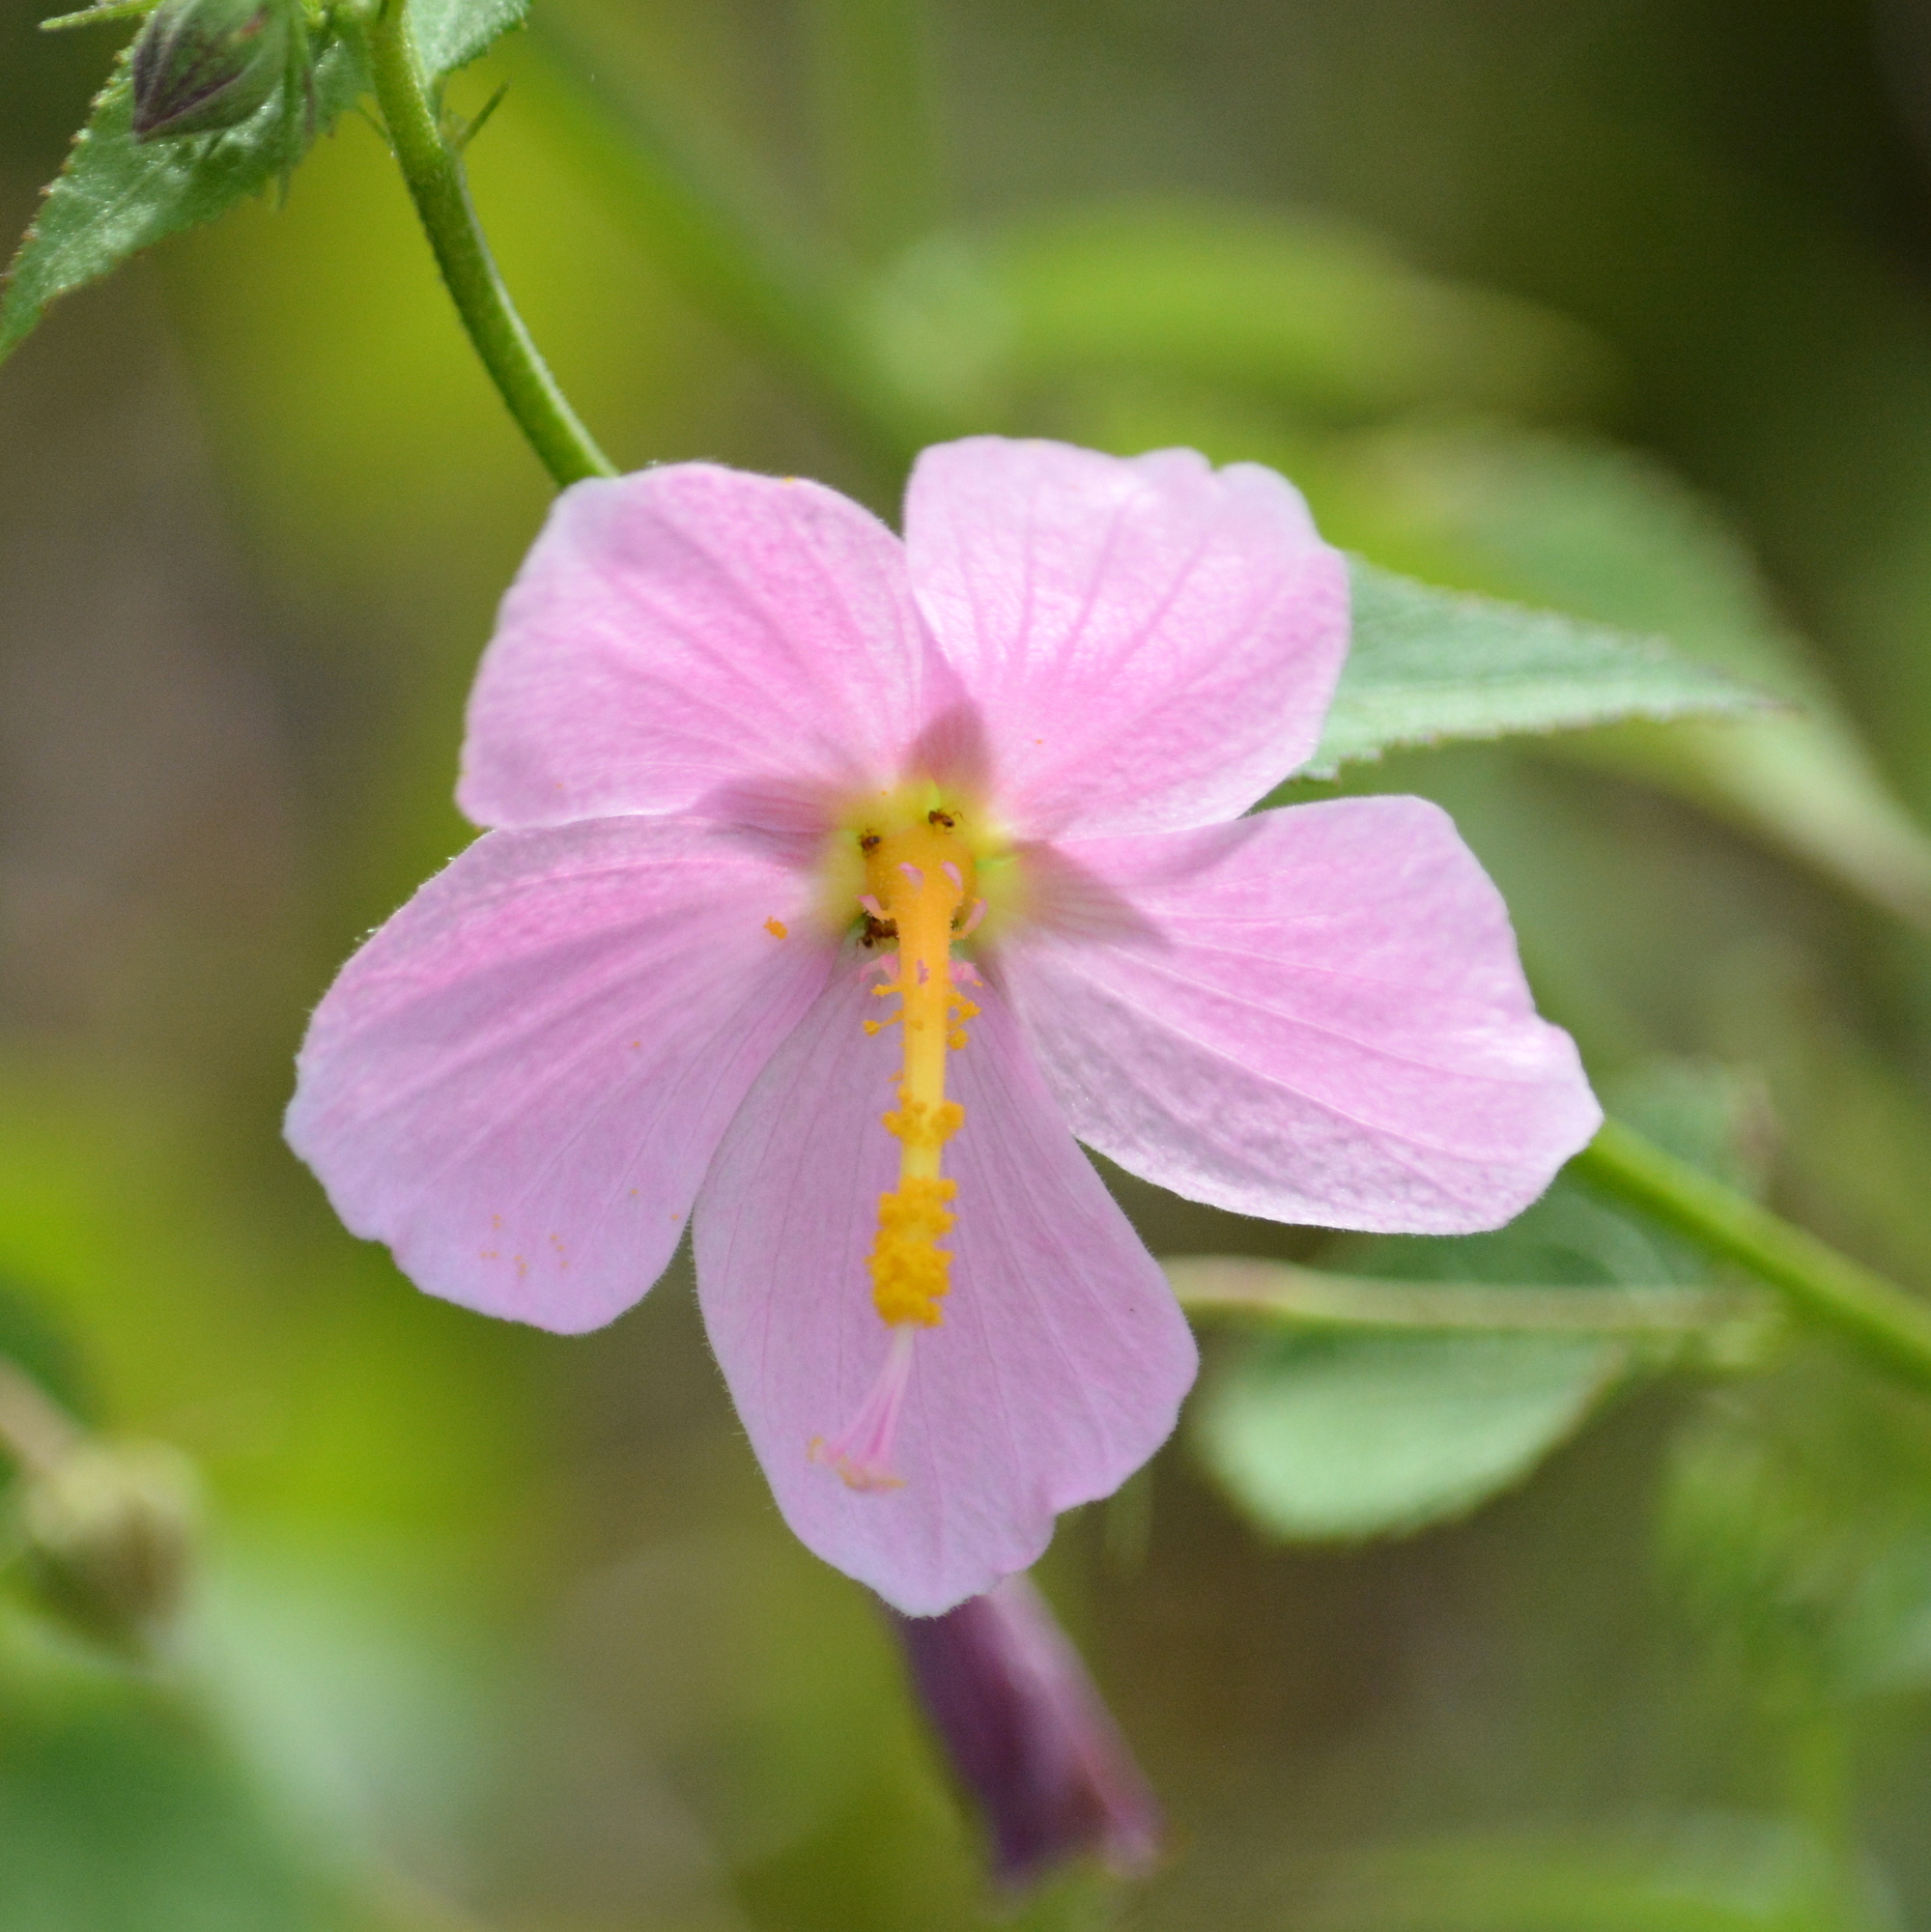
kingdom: Plantae
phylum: Tracheophyta
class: Magnoliopsida
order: Malvales
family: Malvaceae
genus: Kosteletzkya
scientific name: Kosteletzkya pentacarpos
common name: Virginia saltmarsh mallow
